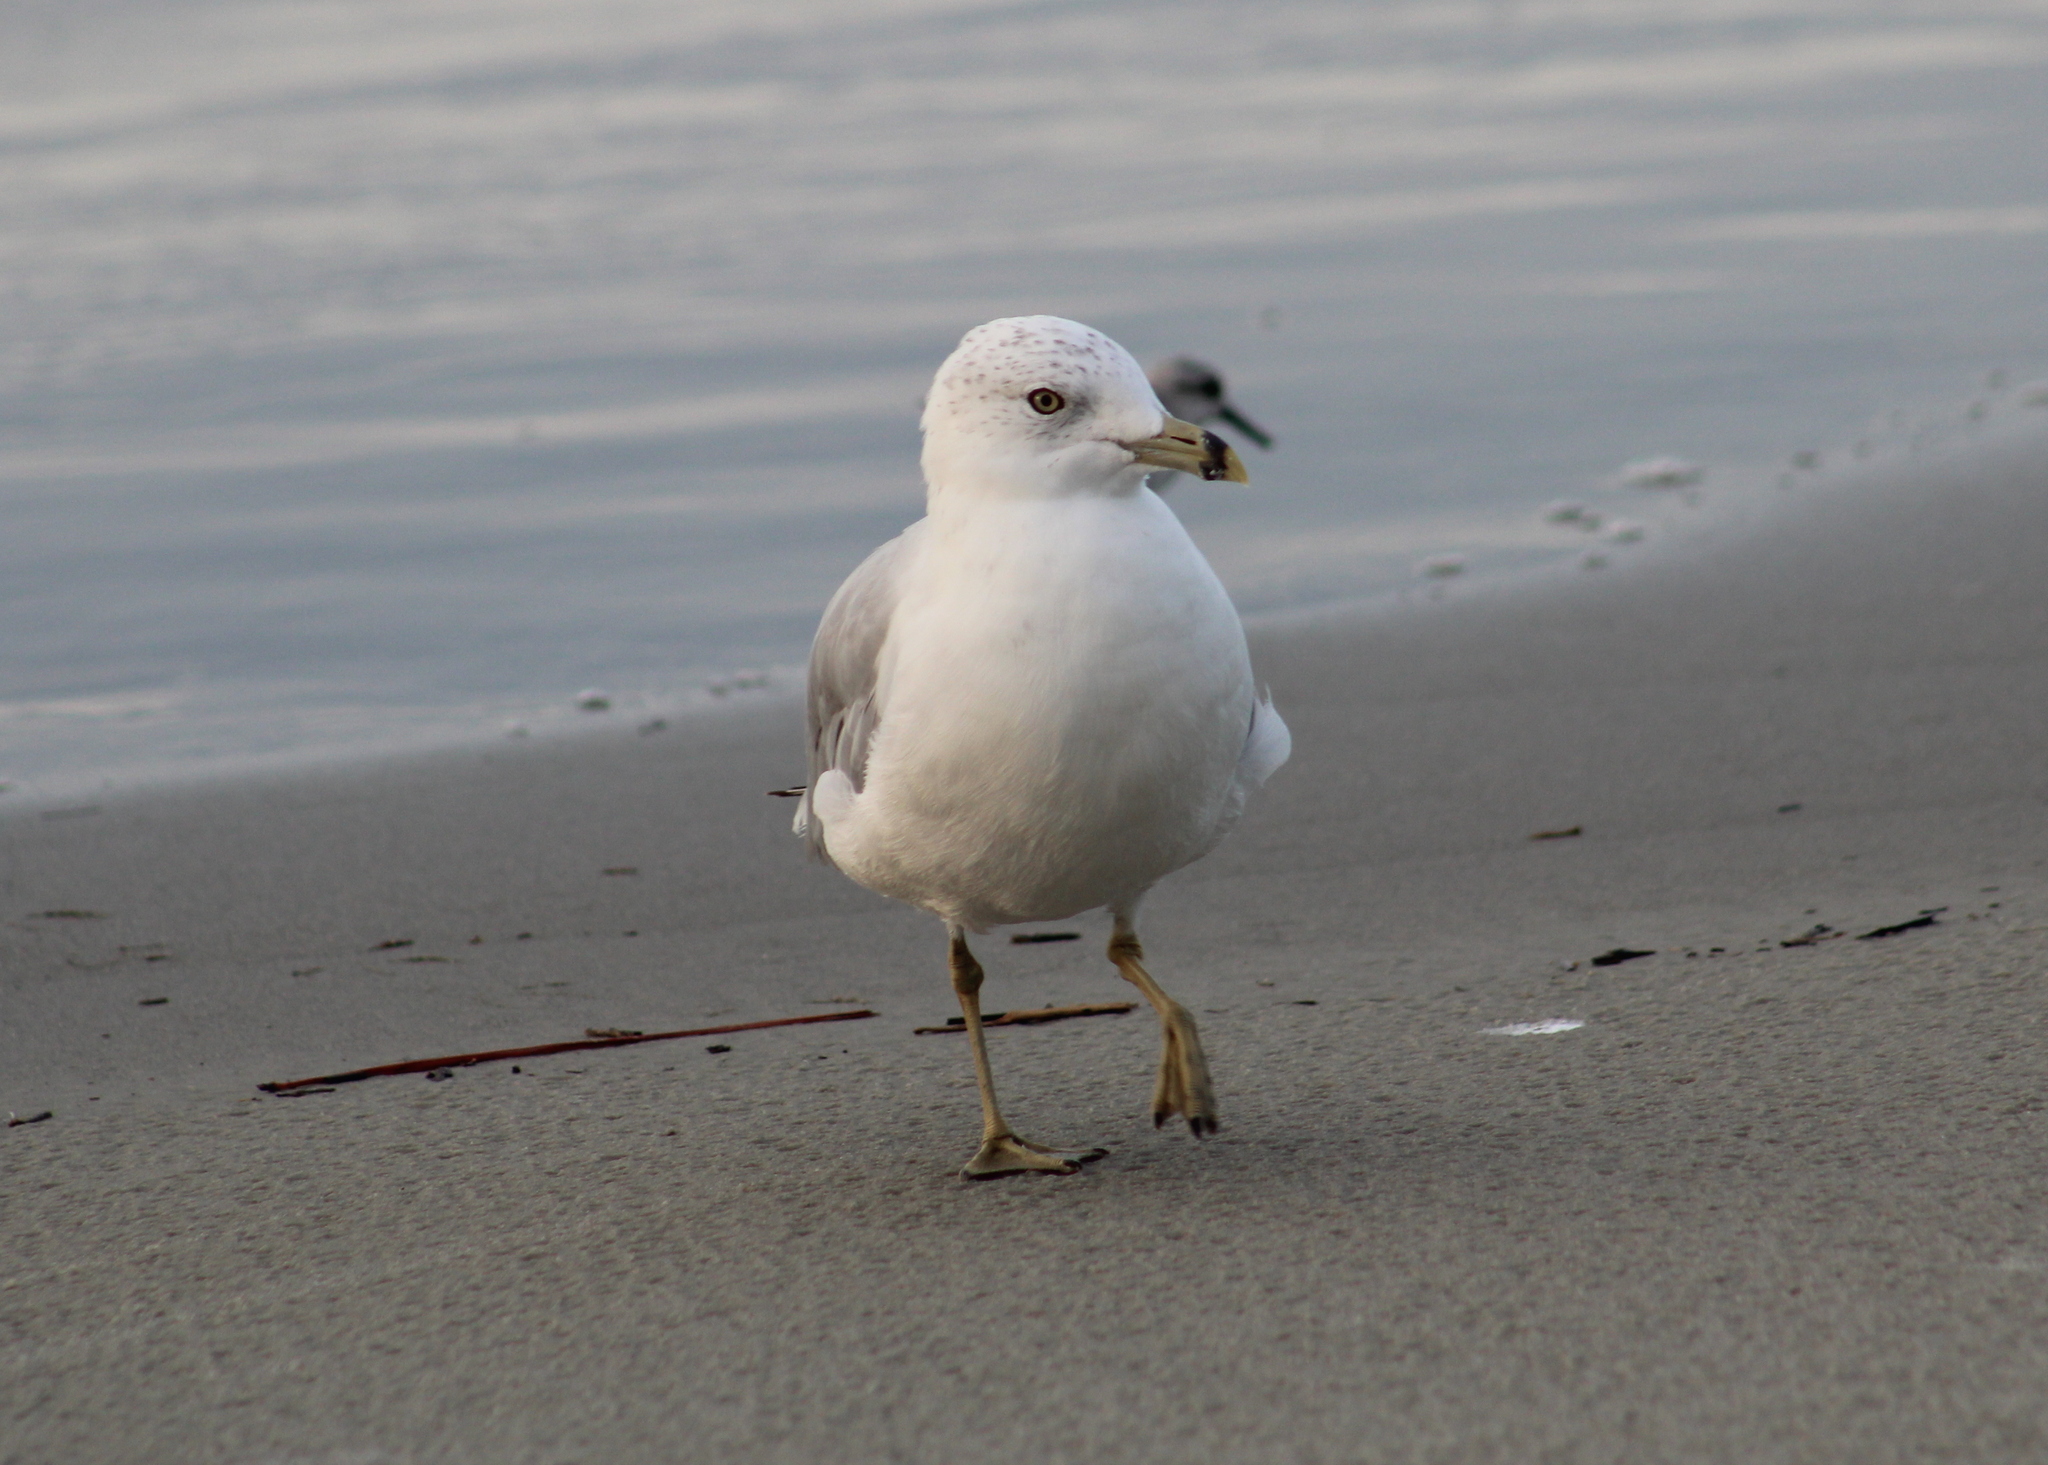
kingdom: Animalia
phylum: Chordata
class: Aves
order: Charadriiformes
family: Laridae
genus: Larus
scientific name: Larus delawarensis
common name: Ring-billed gull
